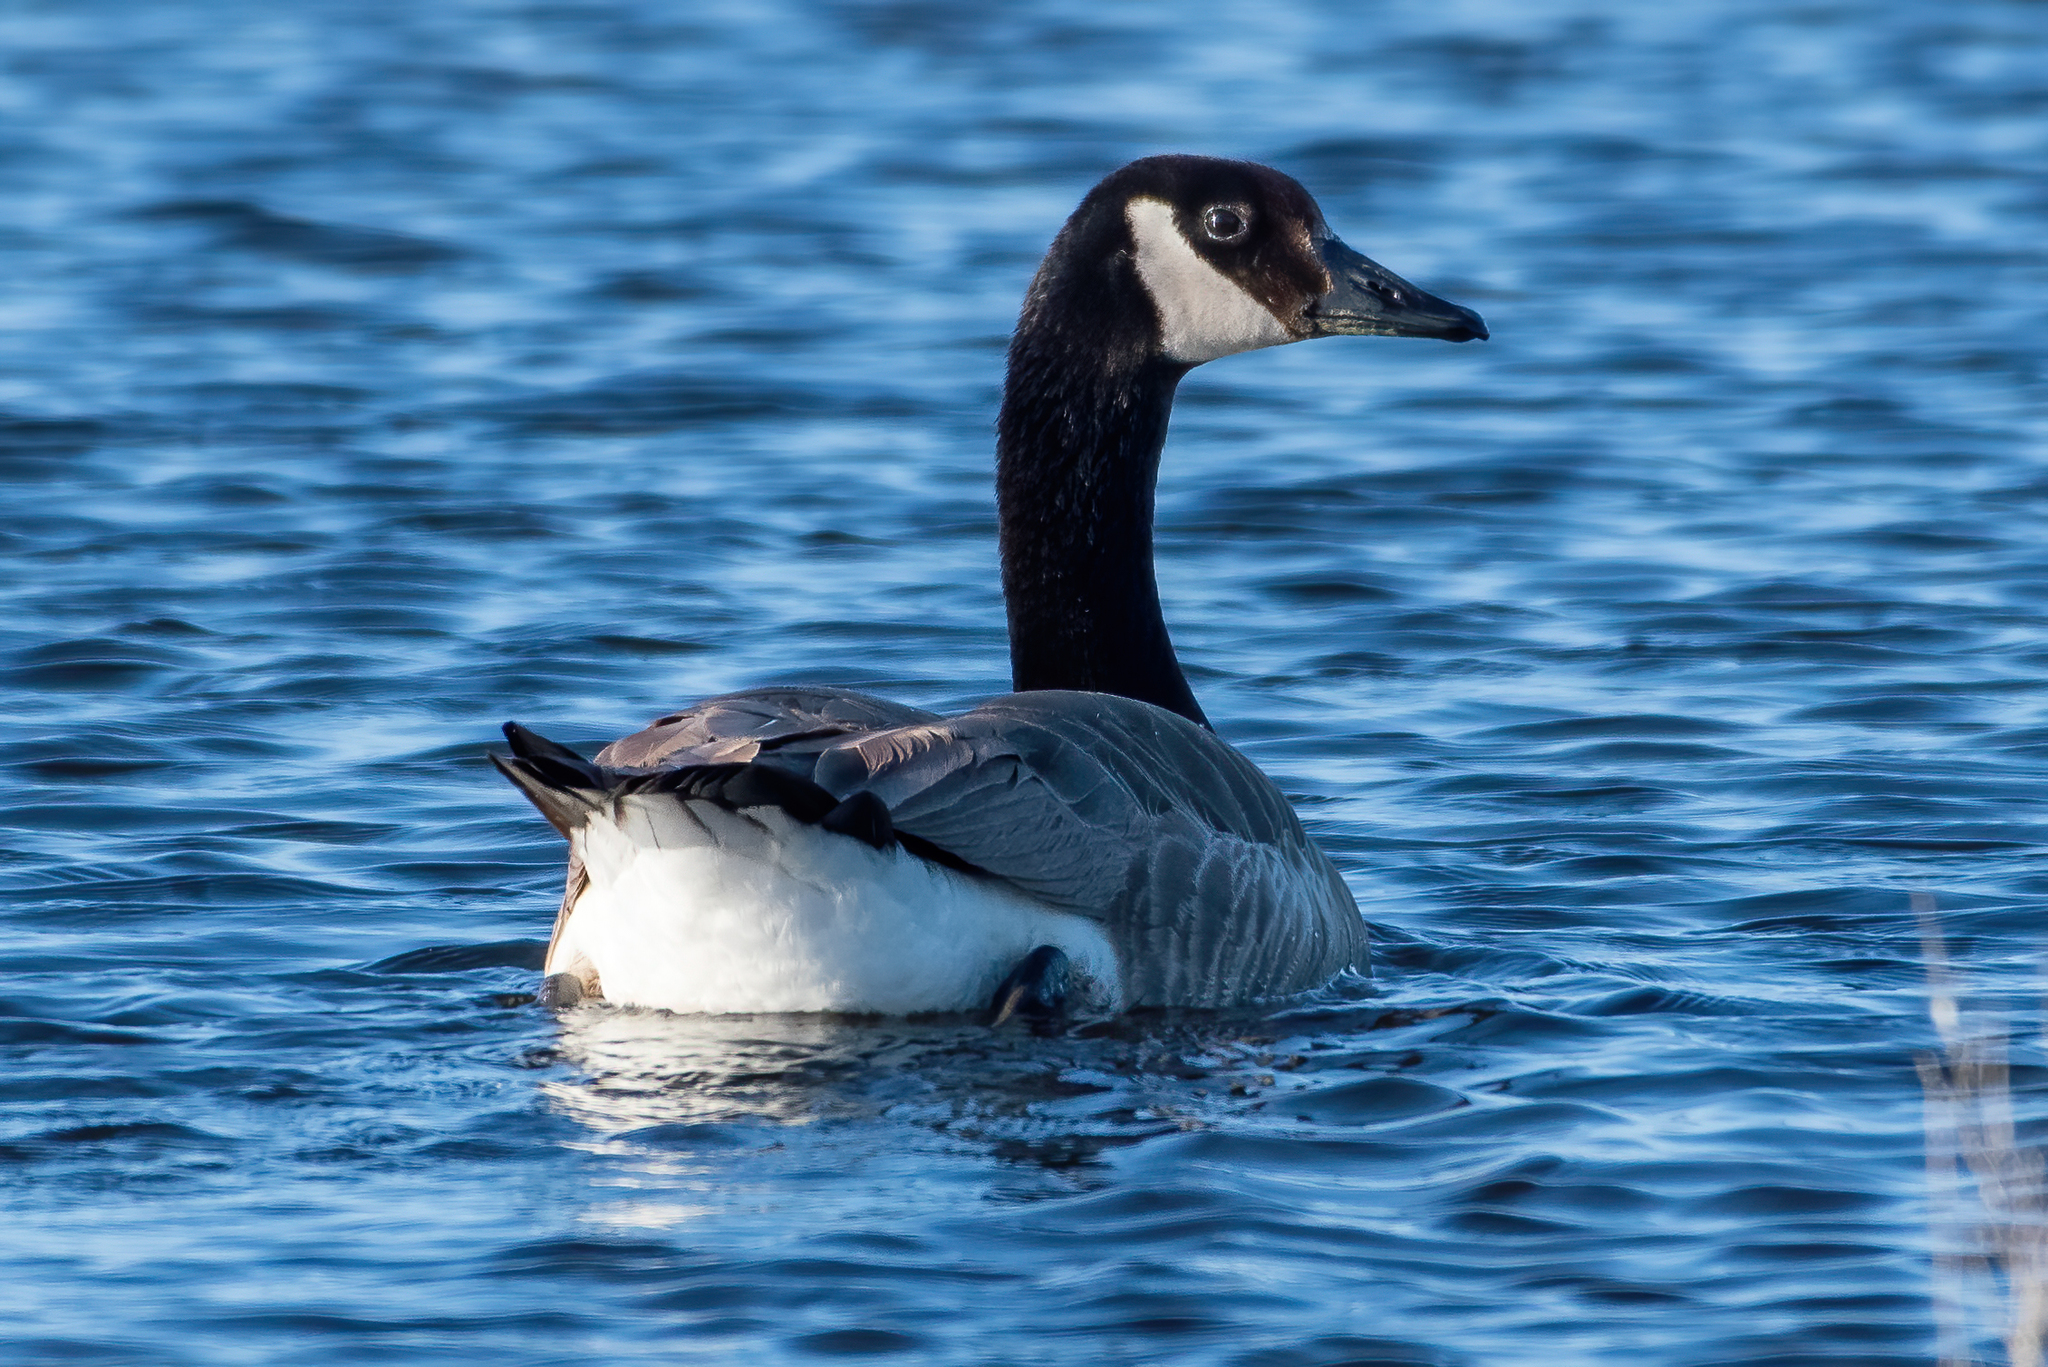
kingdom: Animalia
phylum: Chordata
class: Aves
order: Anseriformes
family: Anatidae
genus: Branta
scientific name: Branta canadensis
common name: Canada goose
